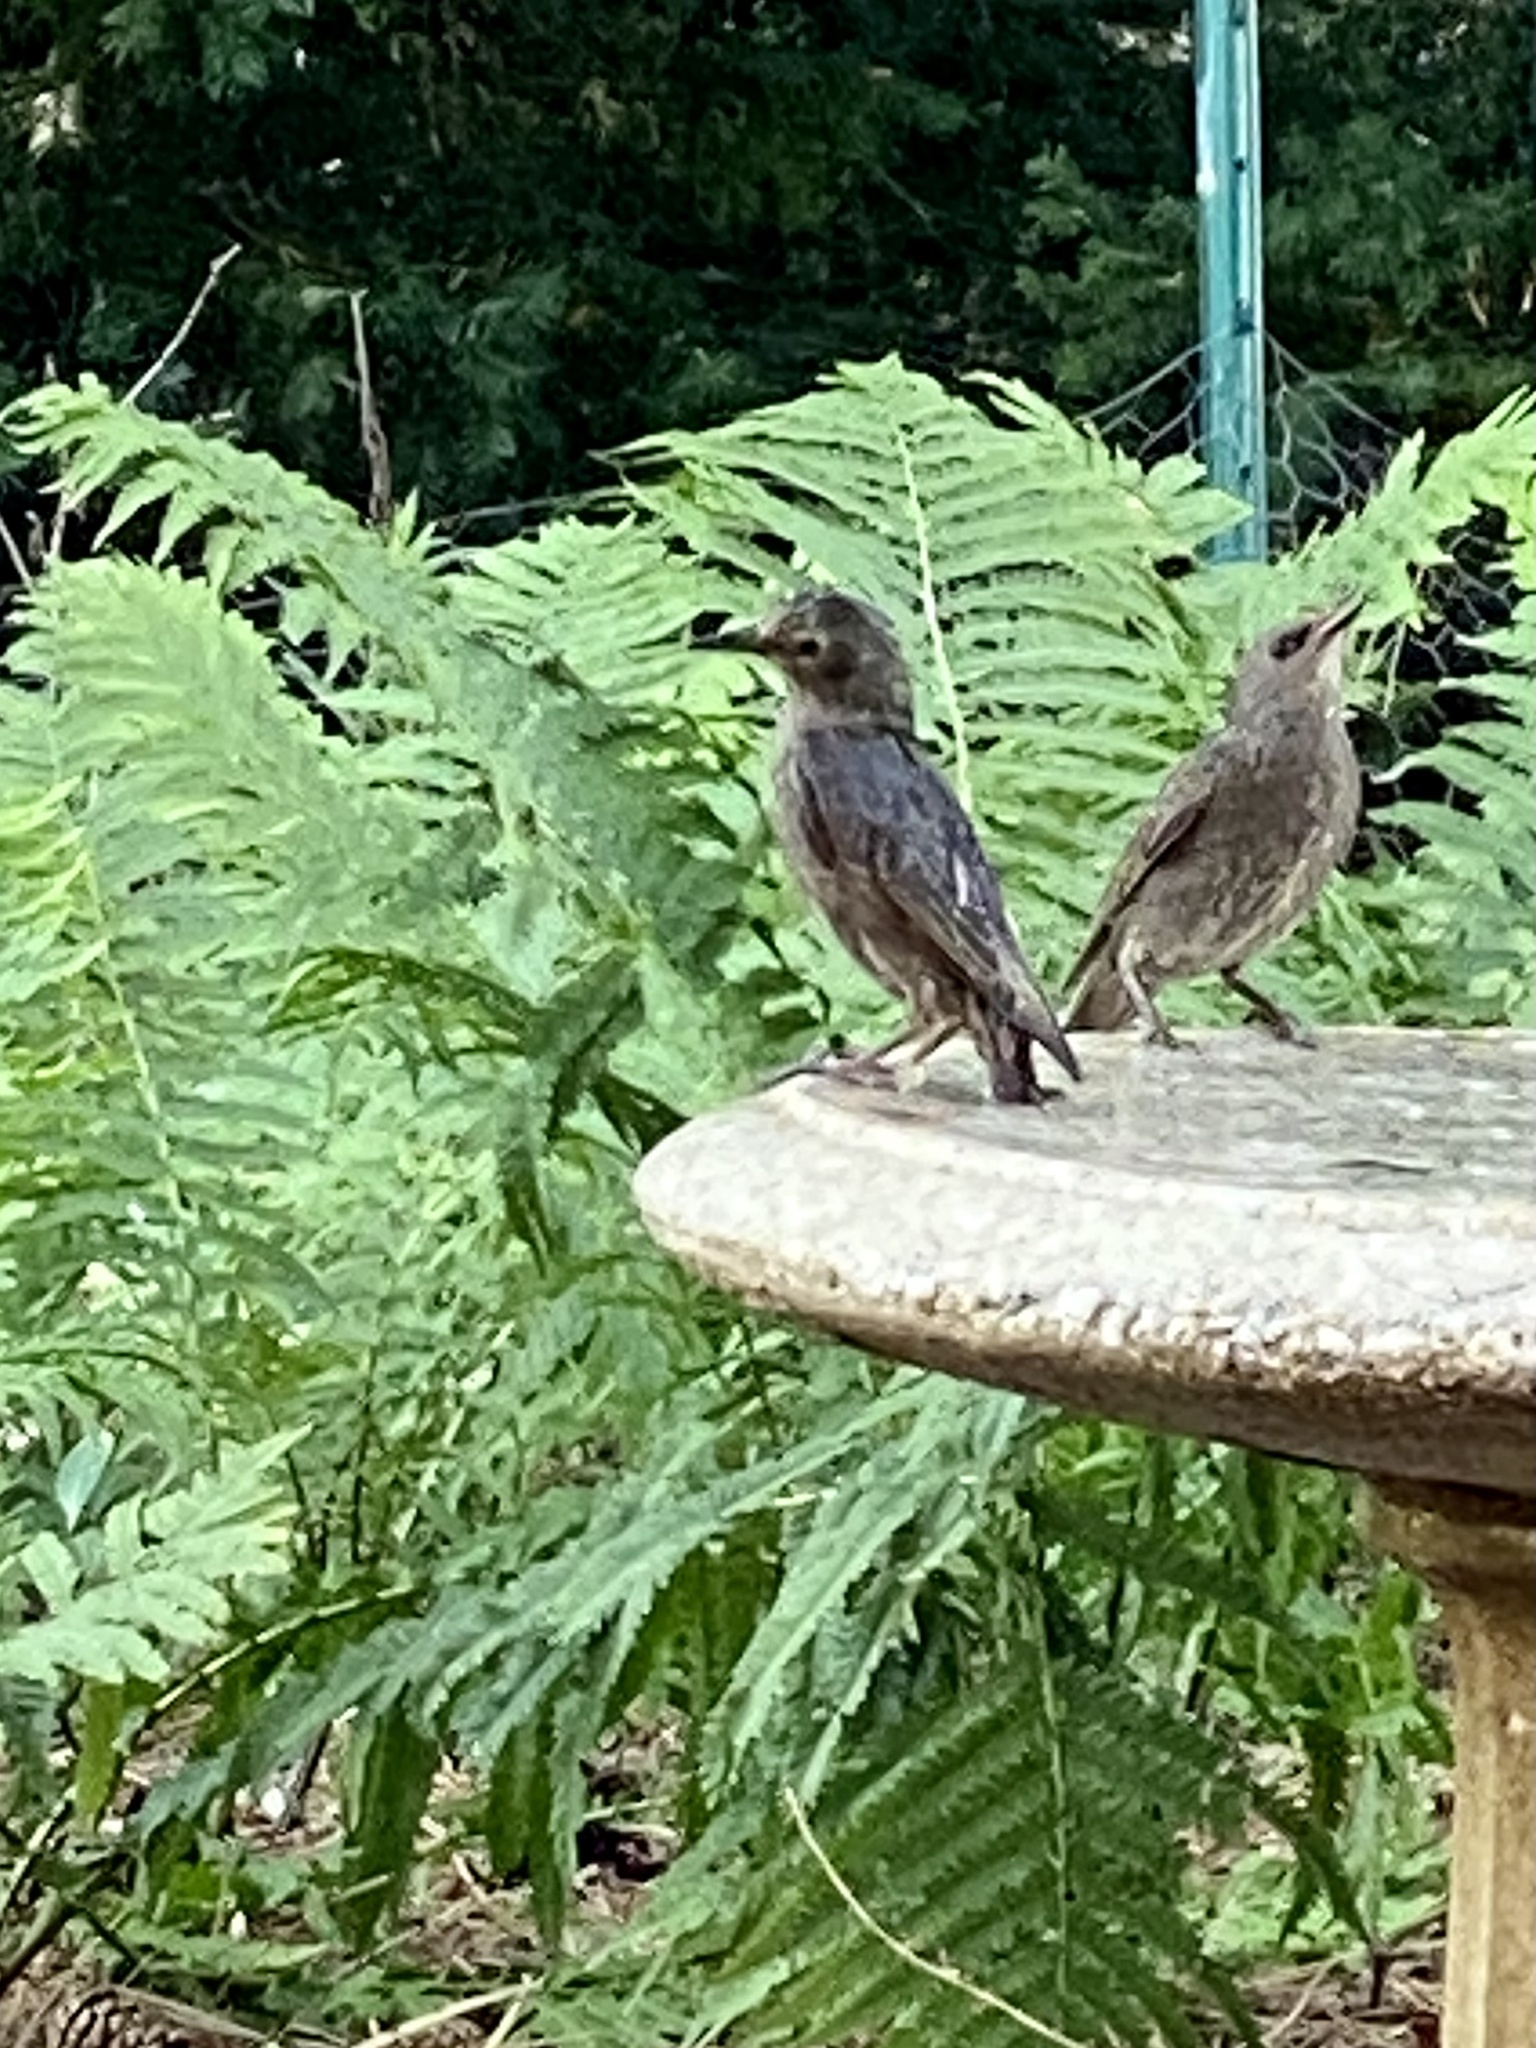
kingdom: Animalia
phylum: Chordata
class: Aves
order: Passeriformes
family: Sturnidae
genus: Sturnus
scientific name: Sturnus vulgaris
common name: Common starling
